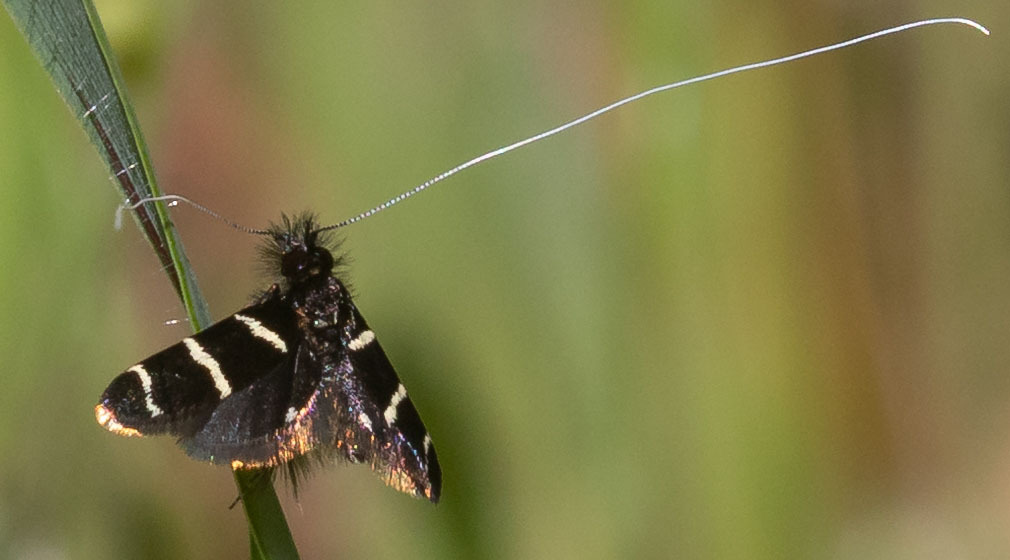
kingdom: Animalia
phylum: Arthropoda
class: Insecta
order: Lepidoptera
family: Adelidae
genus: Adela
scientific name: Adela trigrapha
